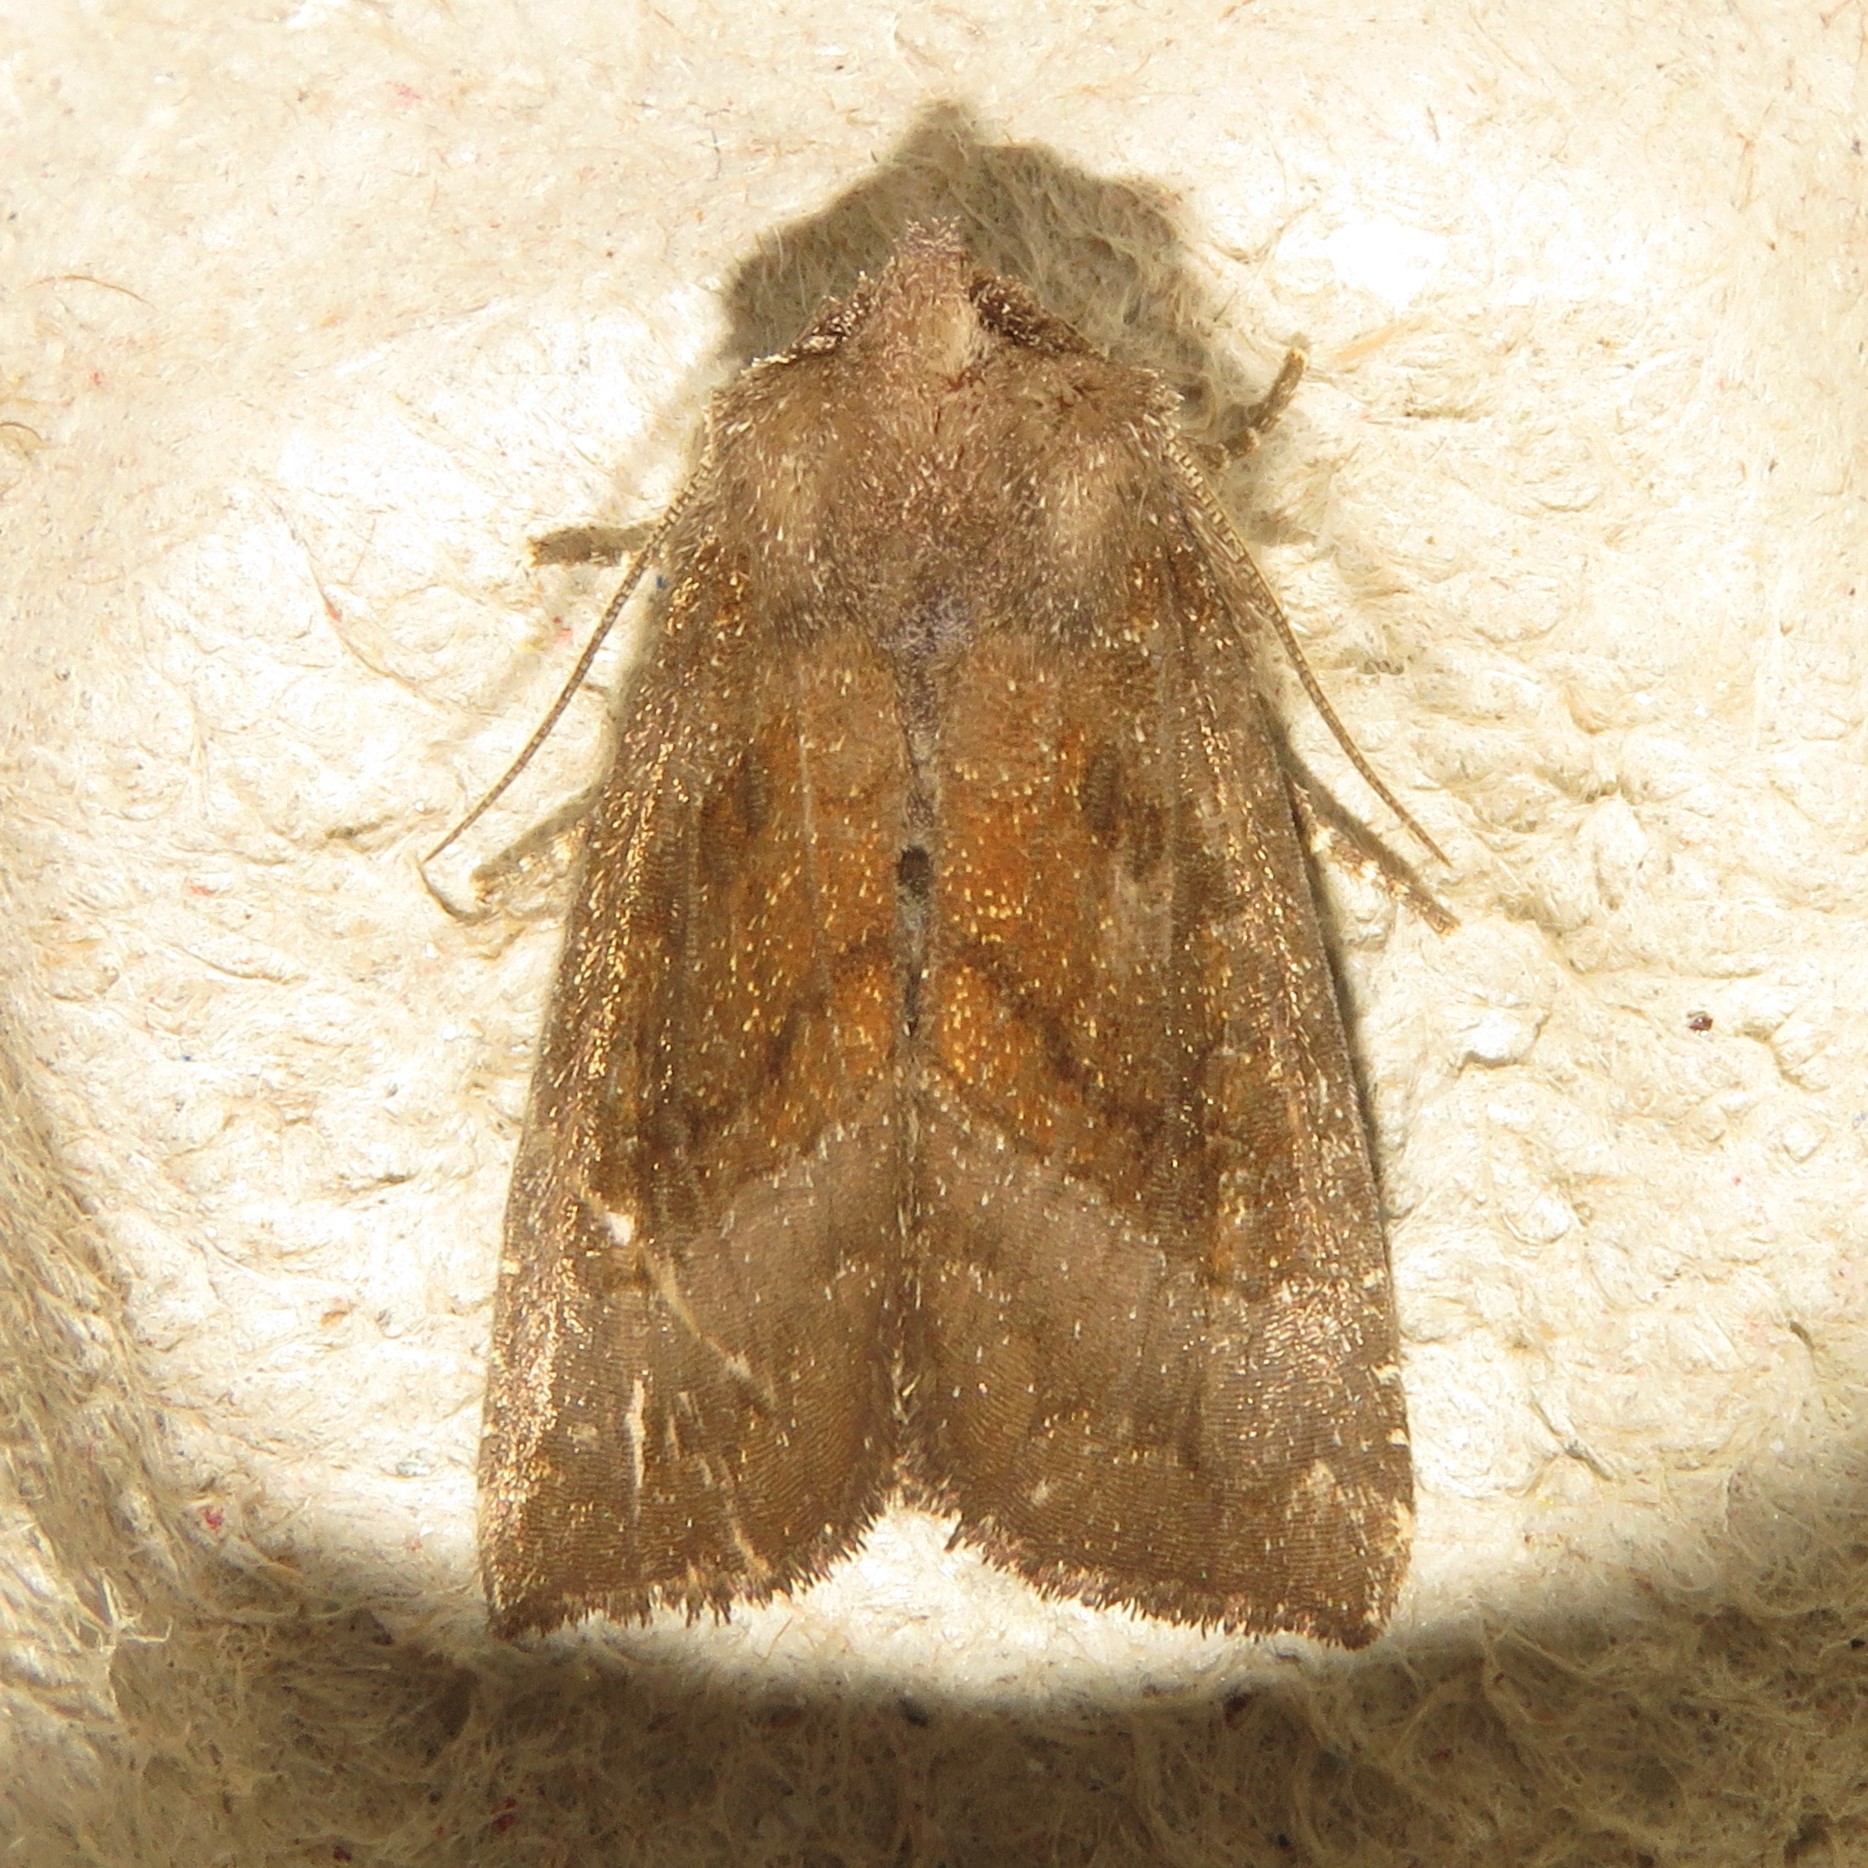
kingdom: Animalia
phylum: Arthropoda
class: Insecta
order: Lepidoptera
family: Noctuidae
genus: Papaipema
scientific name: Papaipema unimoda
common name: Meadow rue borer moth
